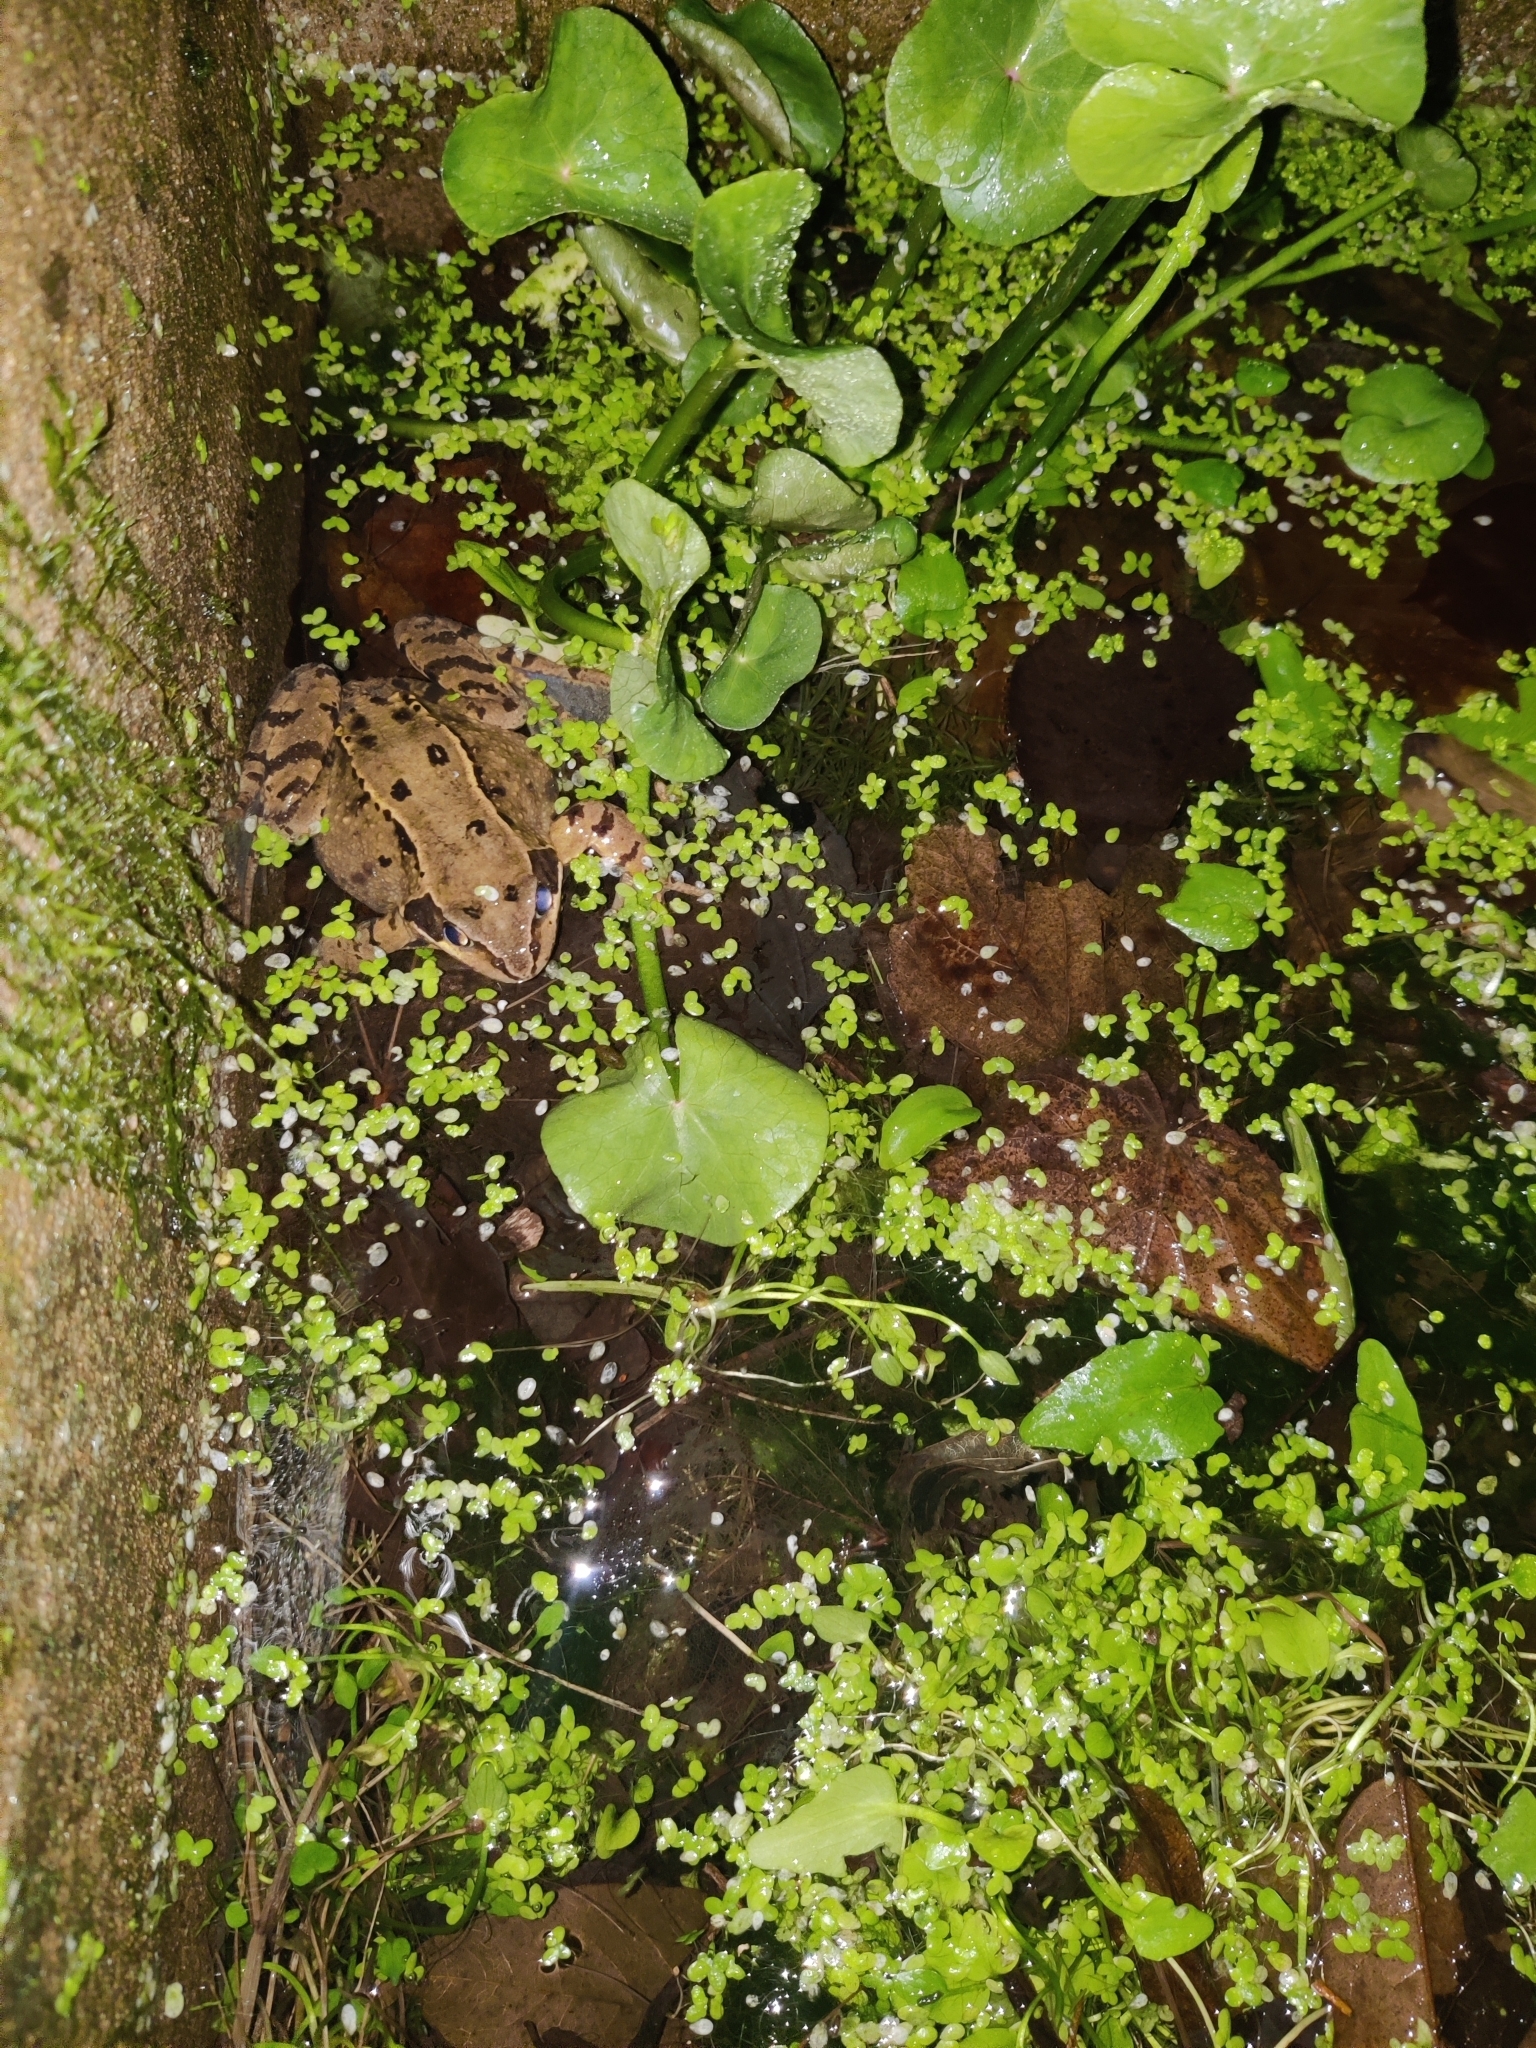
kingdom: Animalia
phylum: Chordata
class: Amphibia
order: Anura
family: Ranidae
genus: Rana
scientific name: Rana temporaria
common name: Common frog
